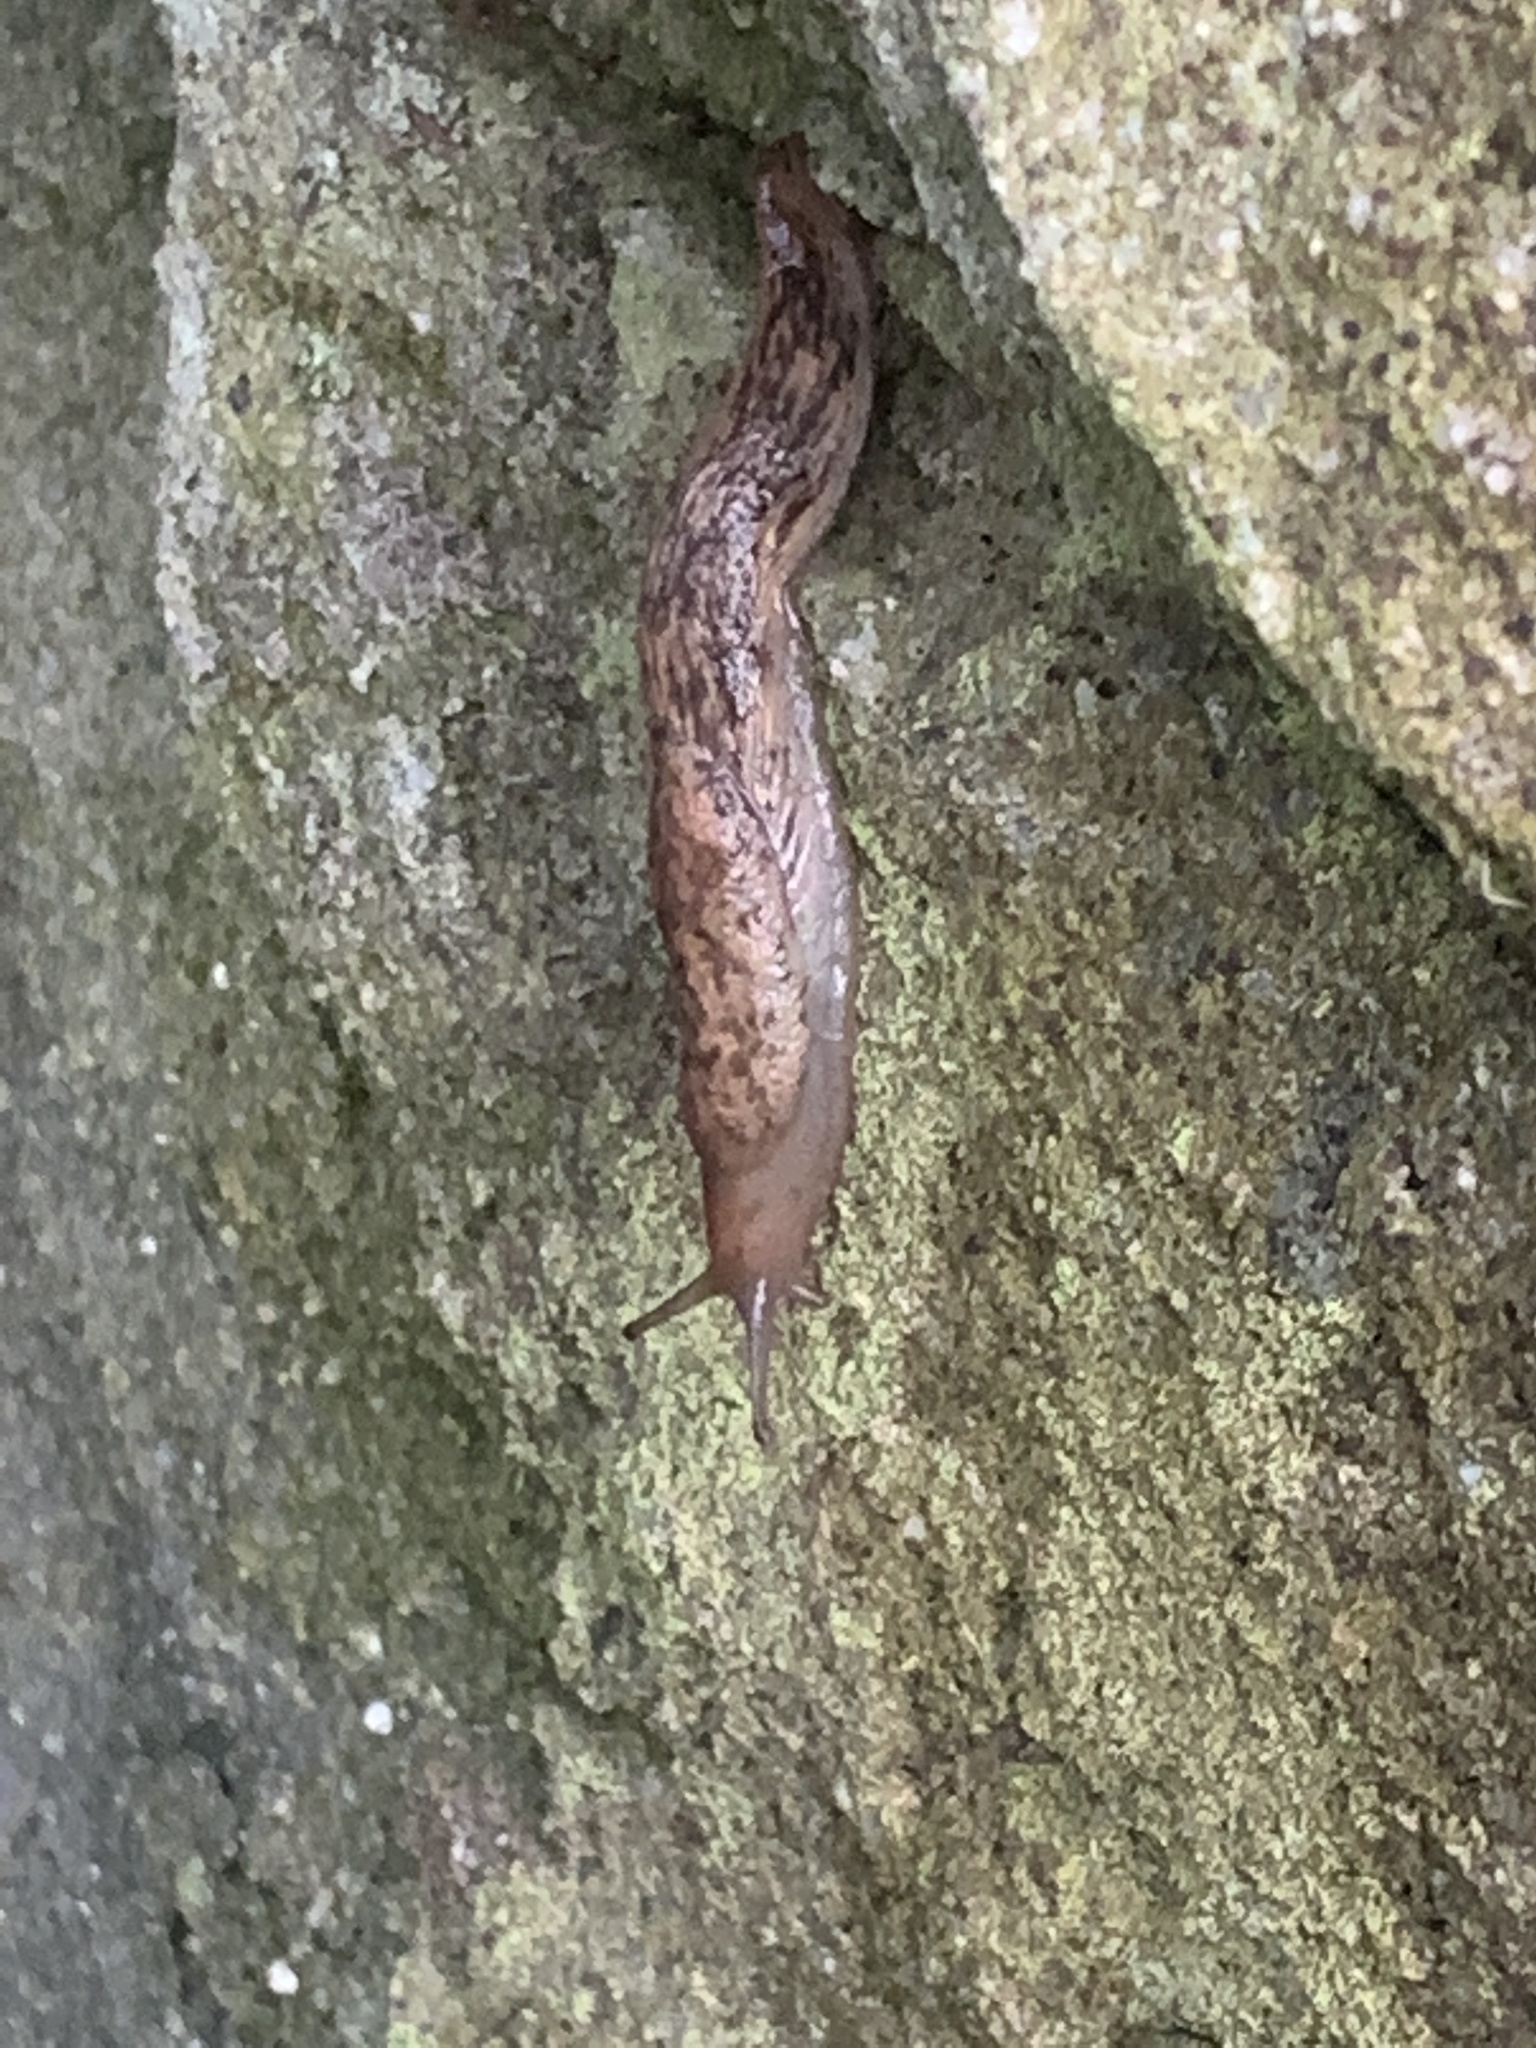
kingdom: Animalia
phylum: Mollusca
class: Gastropoda
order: Stylommatophora
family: Agriolimacidae
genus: Deroceras
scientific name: Deroceras reticulatum
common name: Gray field slug
